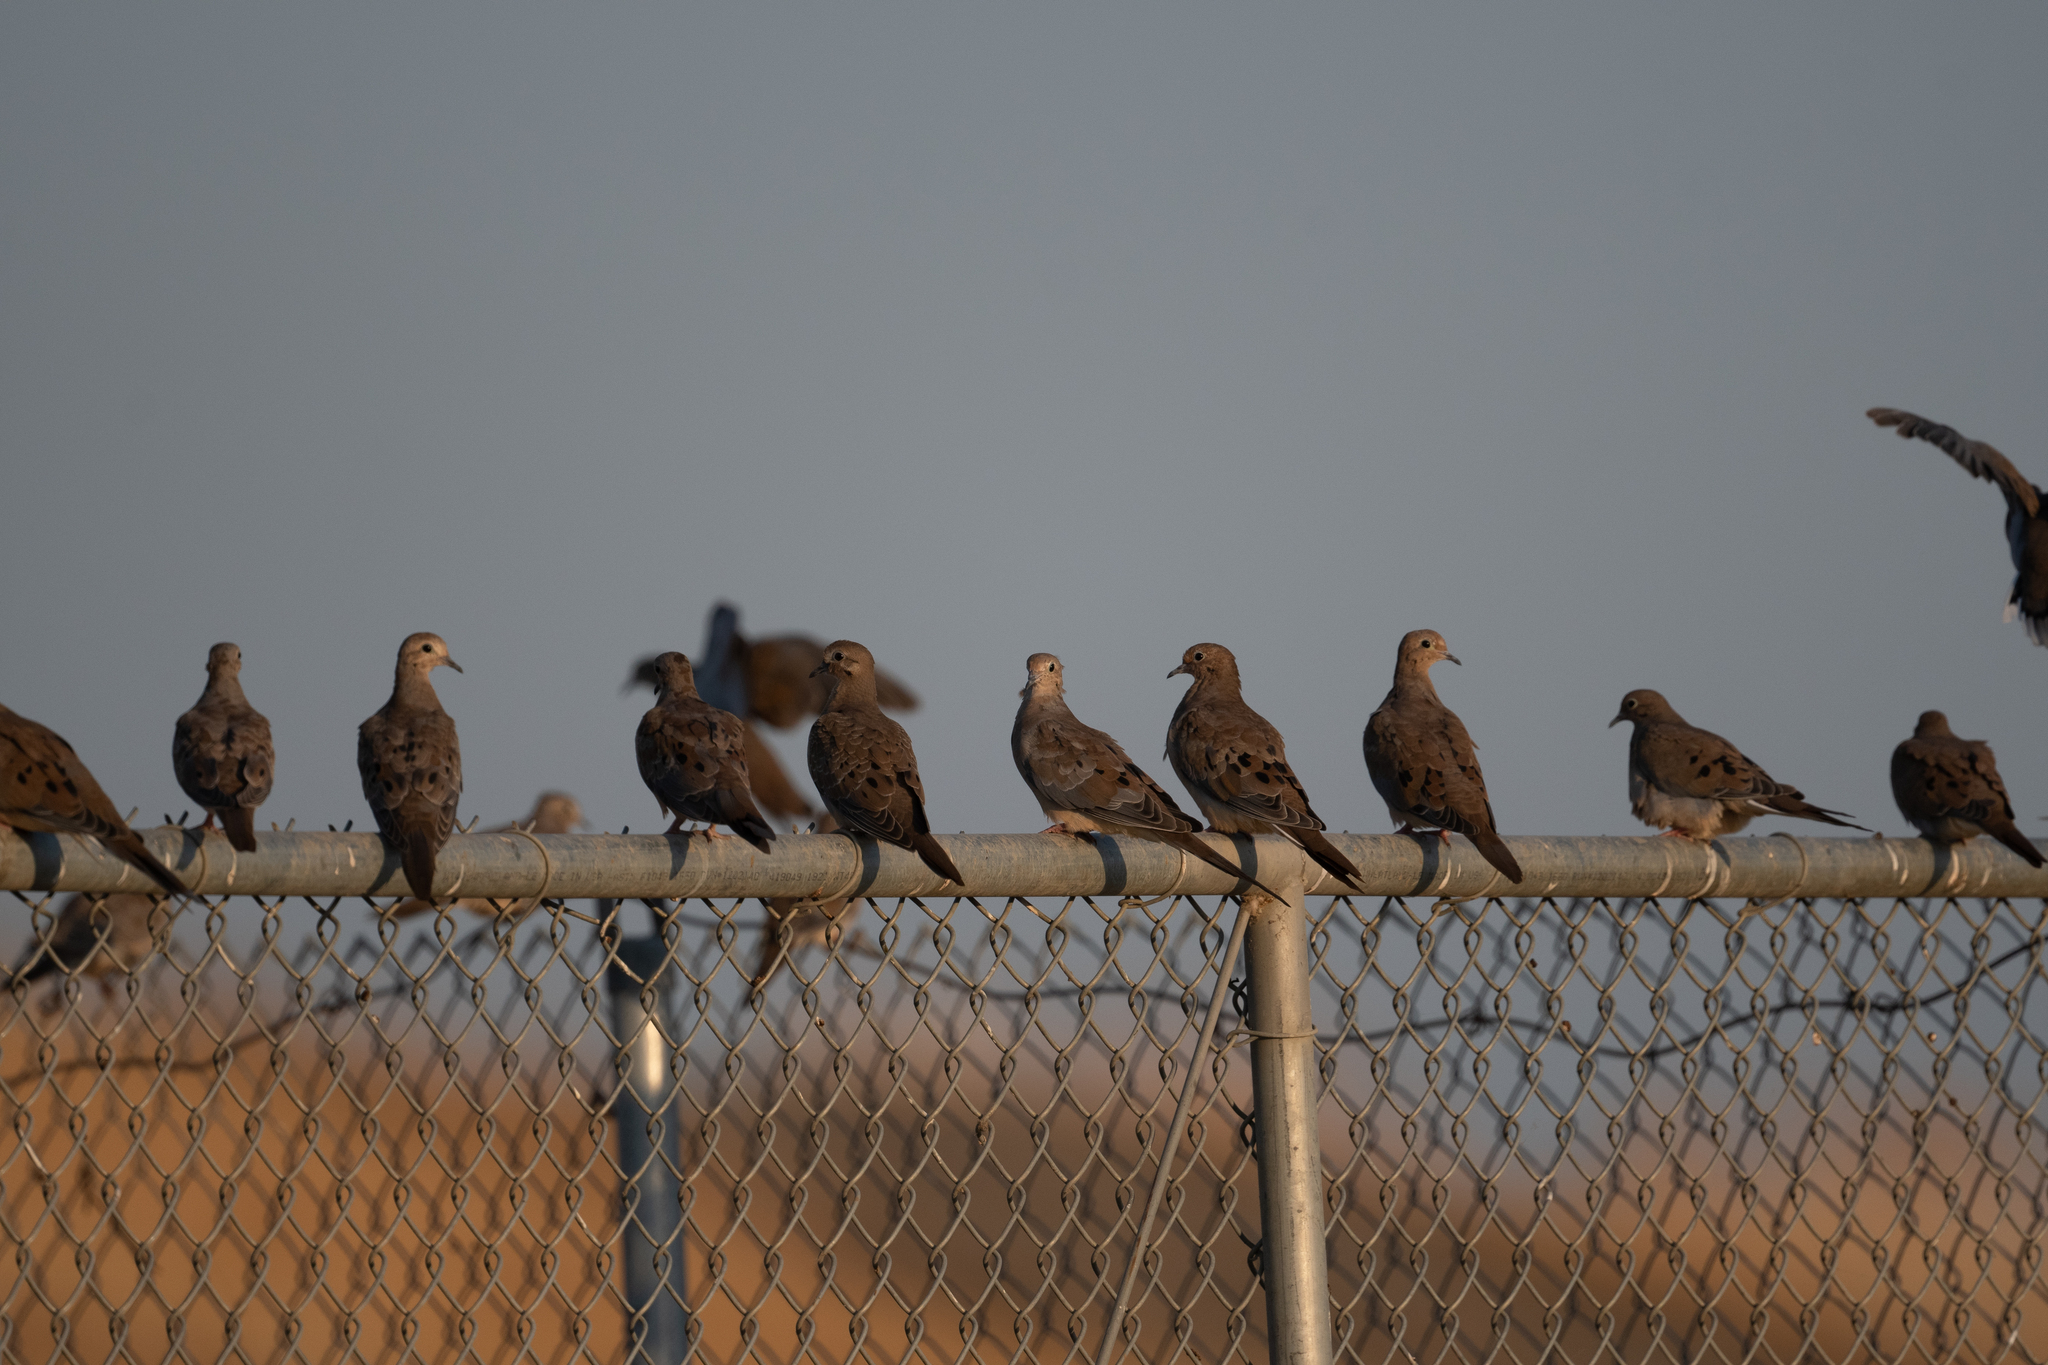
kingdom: Animalia
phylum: Chordata
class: Aves
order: Columbiformes
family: Columbidae
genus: Zenaida
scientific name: Zenaida macroura
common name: Mourning dove
